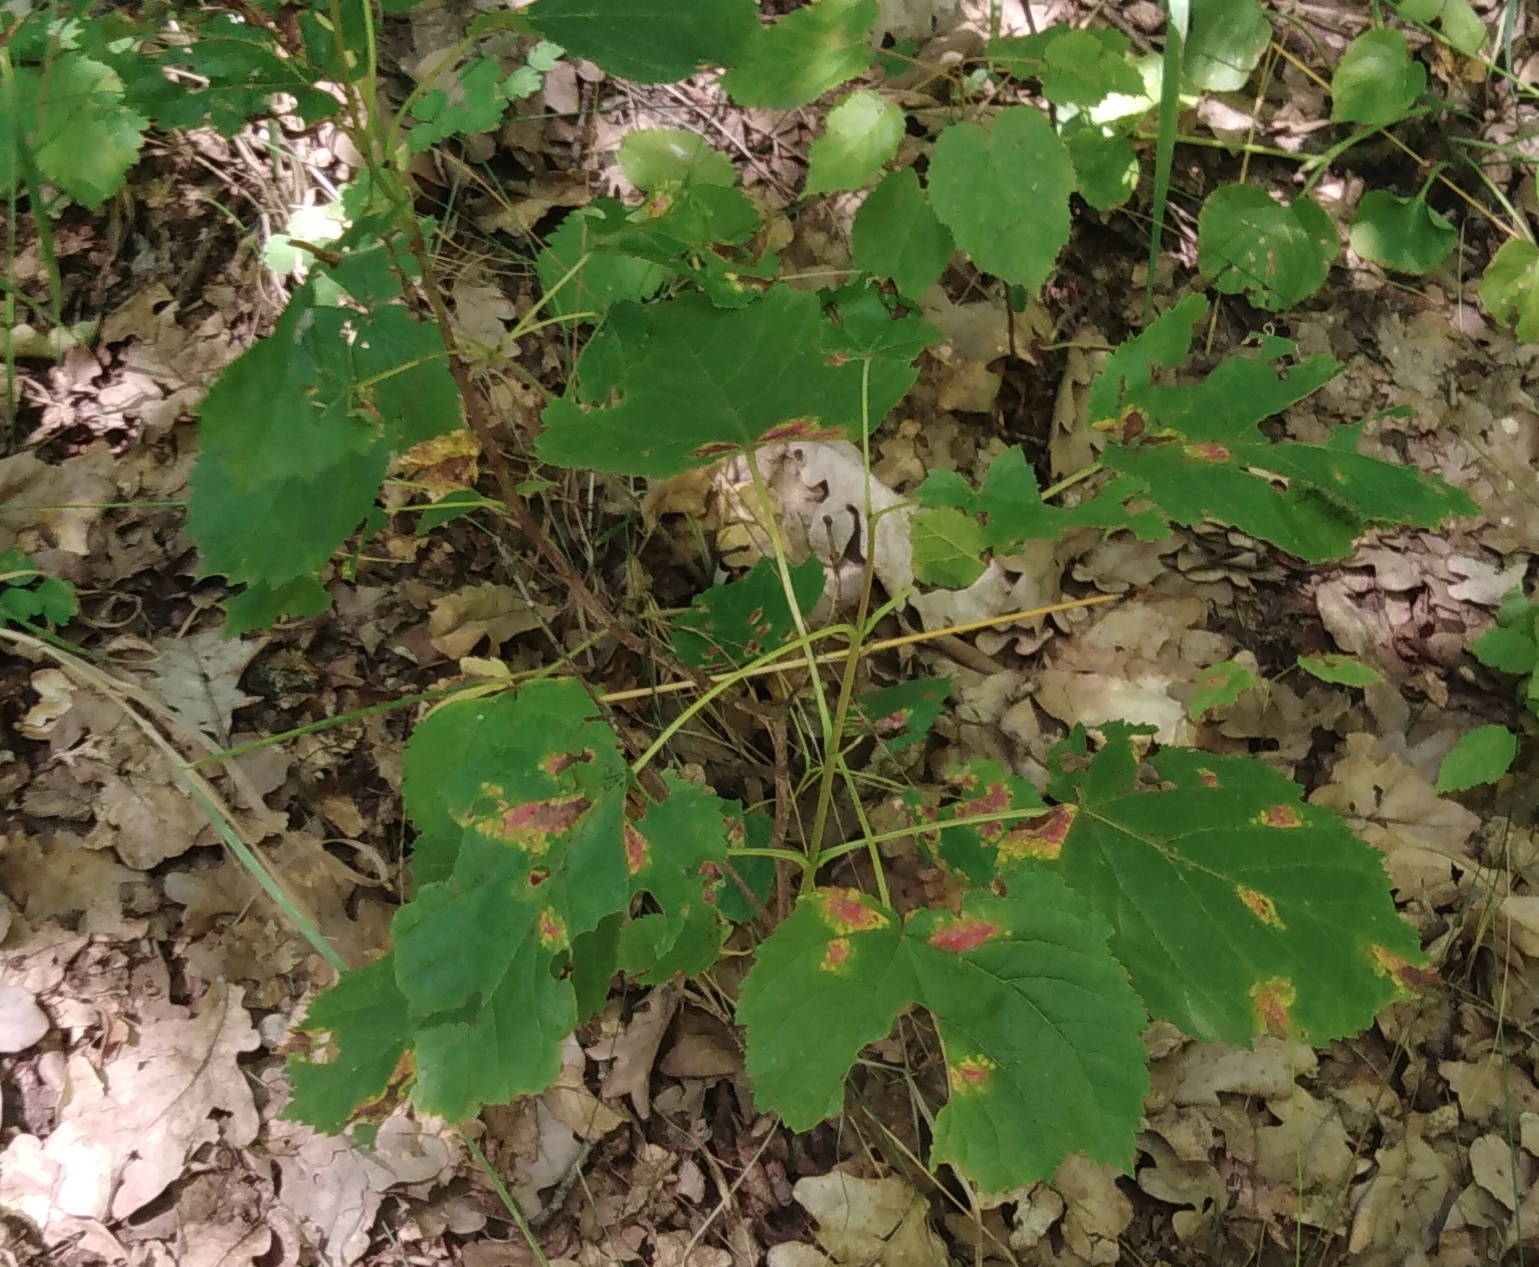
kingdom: Plantae
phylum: Tracheophyta
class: Magnoliopsida
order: Sapindales
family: Sapindaceae
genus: Acer
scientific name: Acer tataricum
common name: Tartar maple
